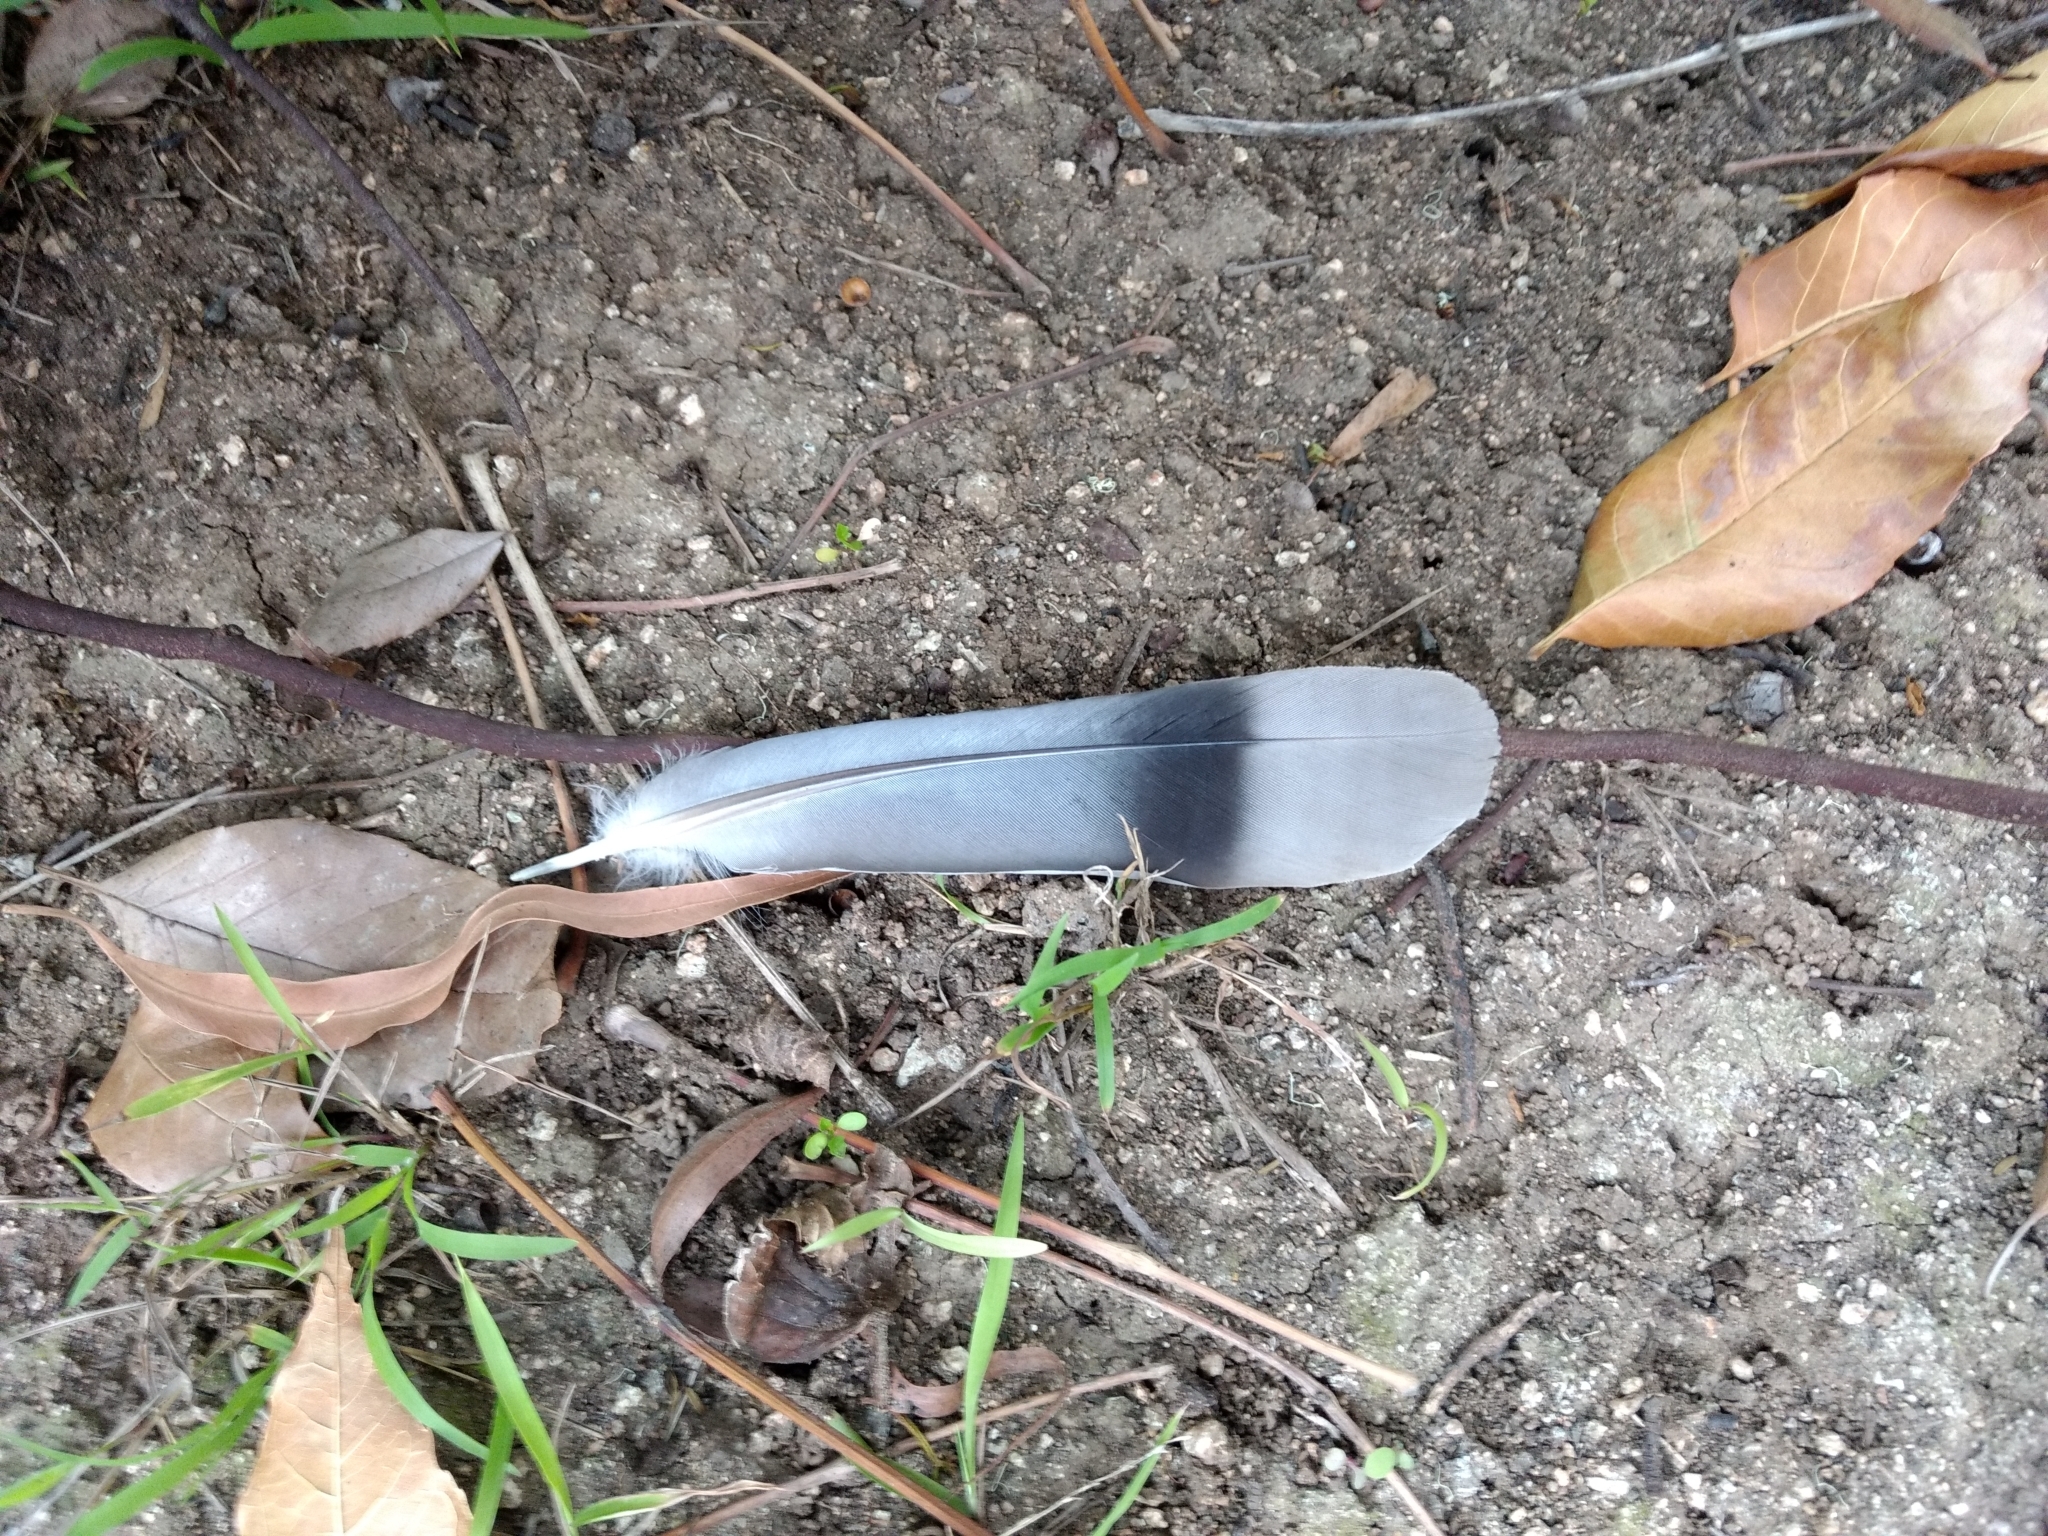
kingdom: Animalia
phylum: Chordata
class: Aves
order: Columbiformes
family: Columbidae
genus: Patagioenas
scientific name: Patagioenas fasciata
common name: Band-tailed pigeon
